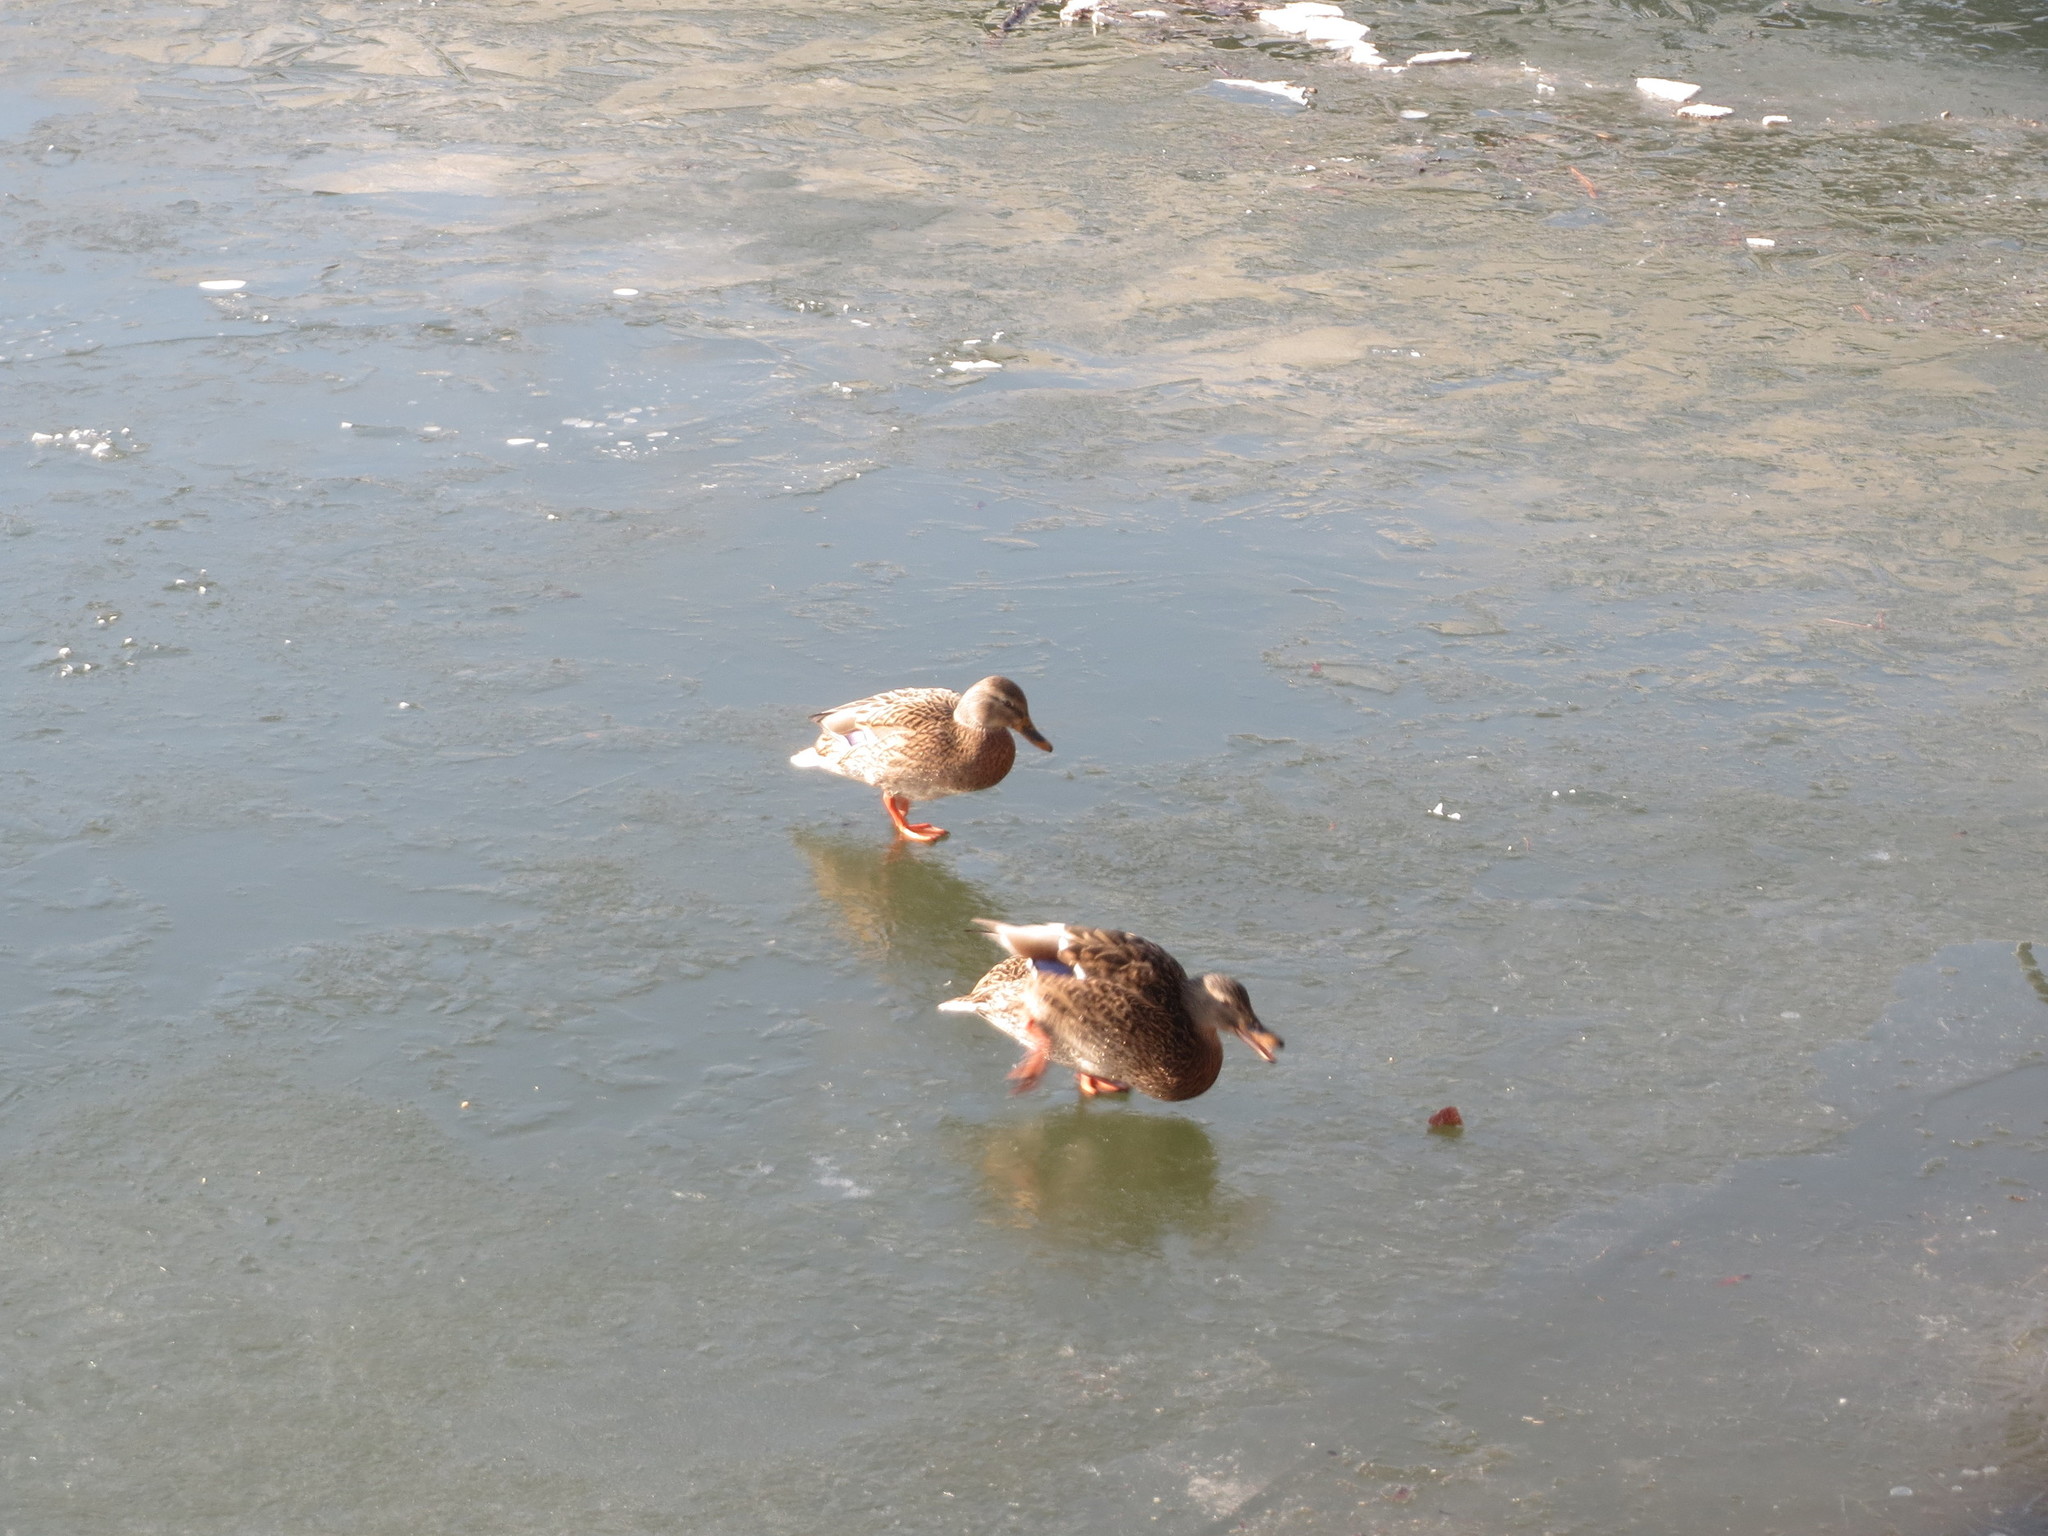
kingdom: Animalia
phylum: Chordata
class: Aves
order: Anseriformes
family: Anatidae
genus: Anas
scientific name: Anas platyrhynchos
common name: Mallard
